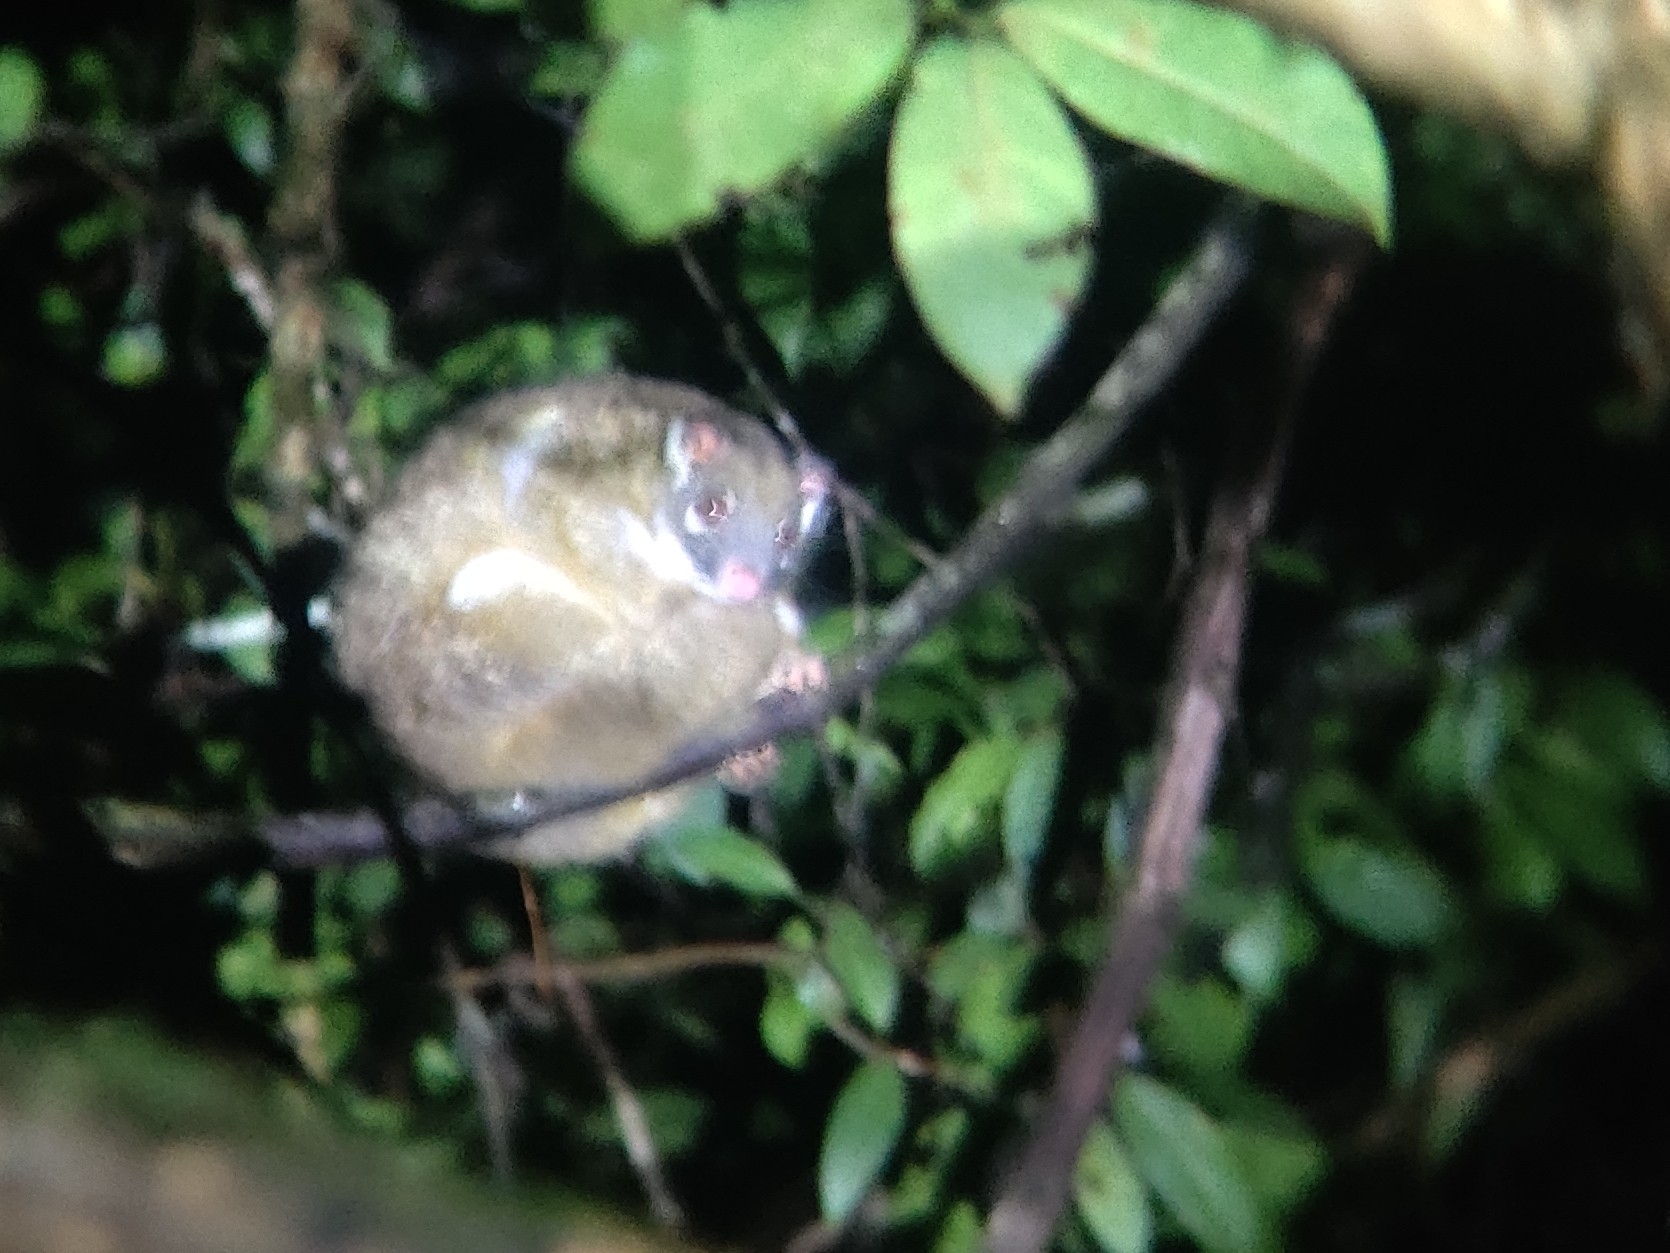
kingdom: Animalia
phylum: Chordata
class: Mammalia
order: Diprotodontia
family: Pseudocheiridae
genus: Pseudochirops
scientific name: Pseudochirops archeri
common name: Green ringtail
